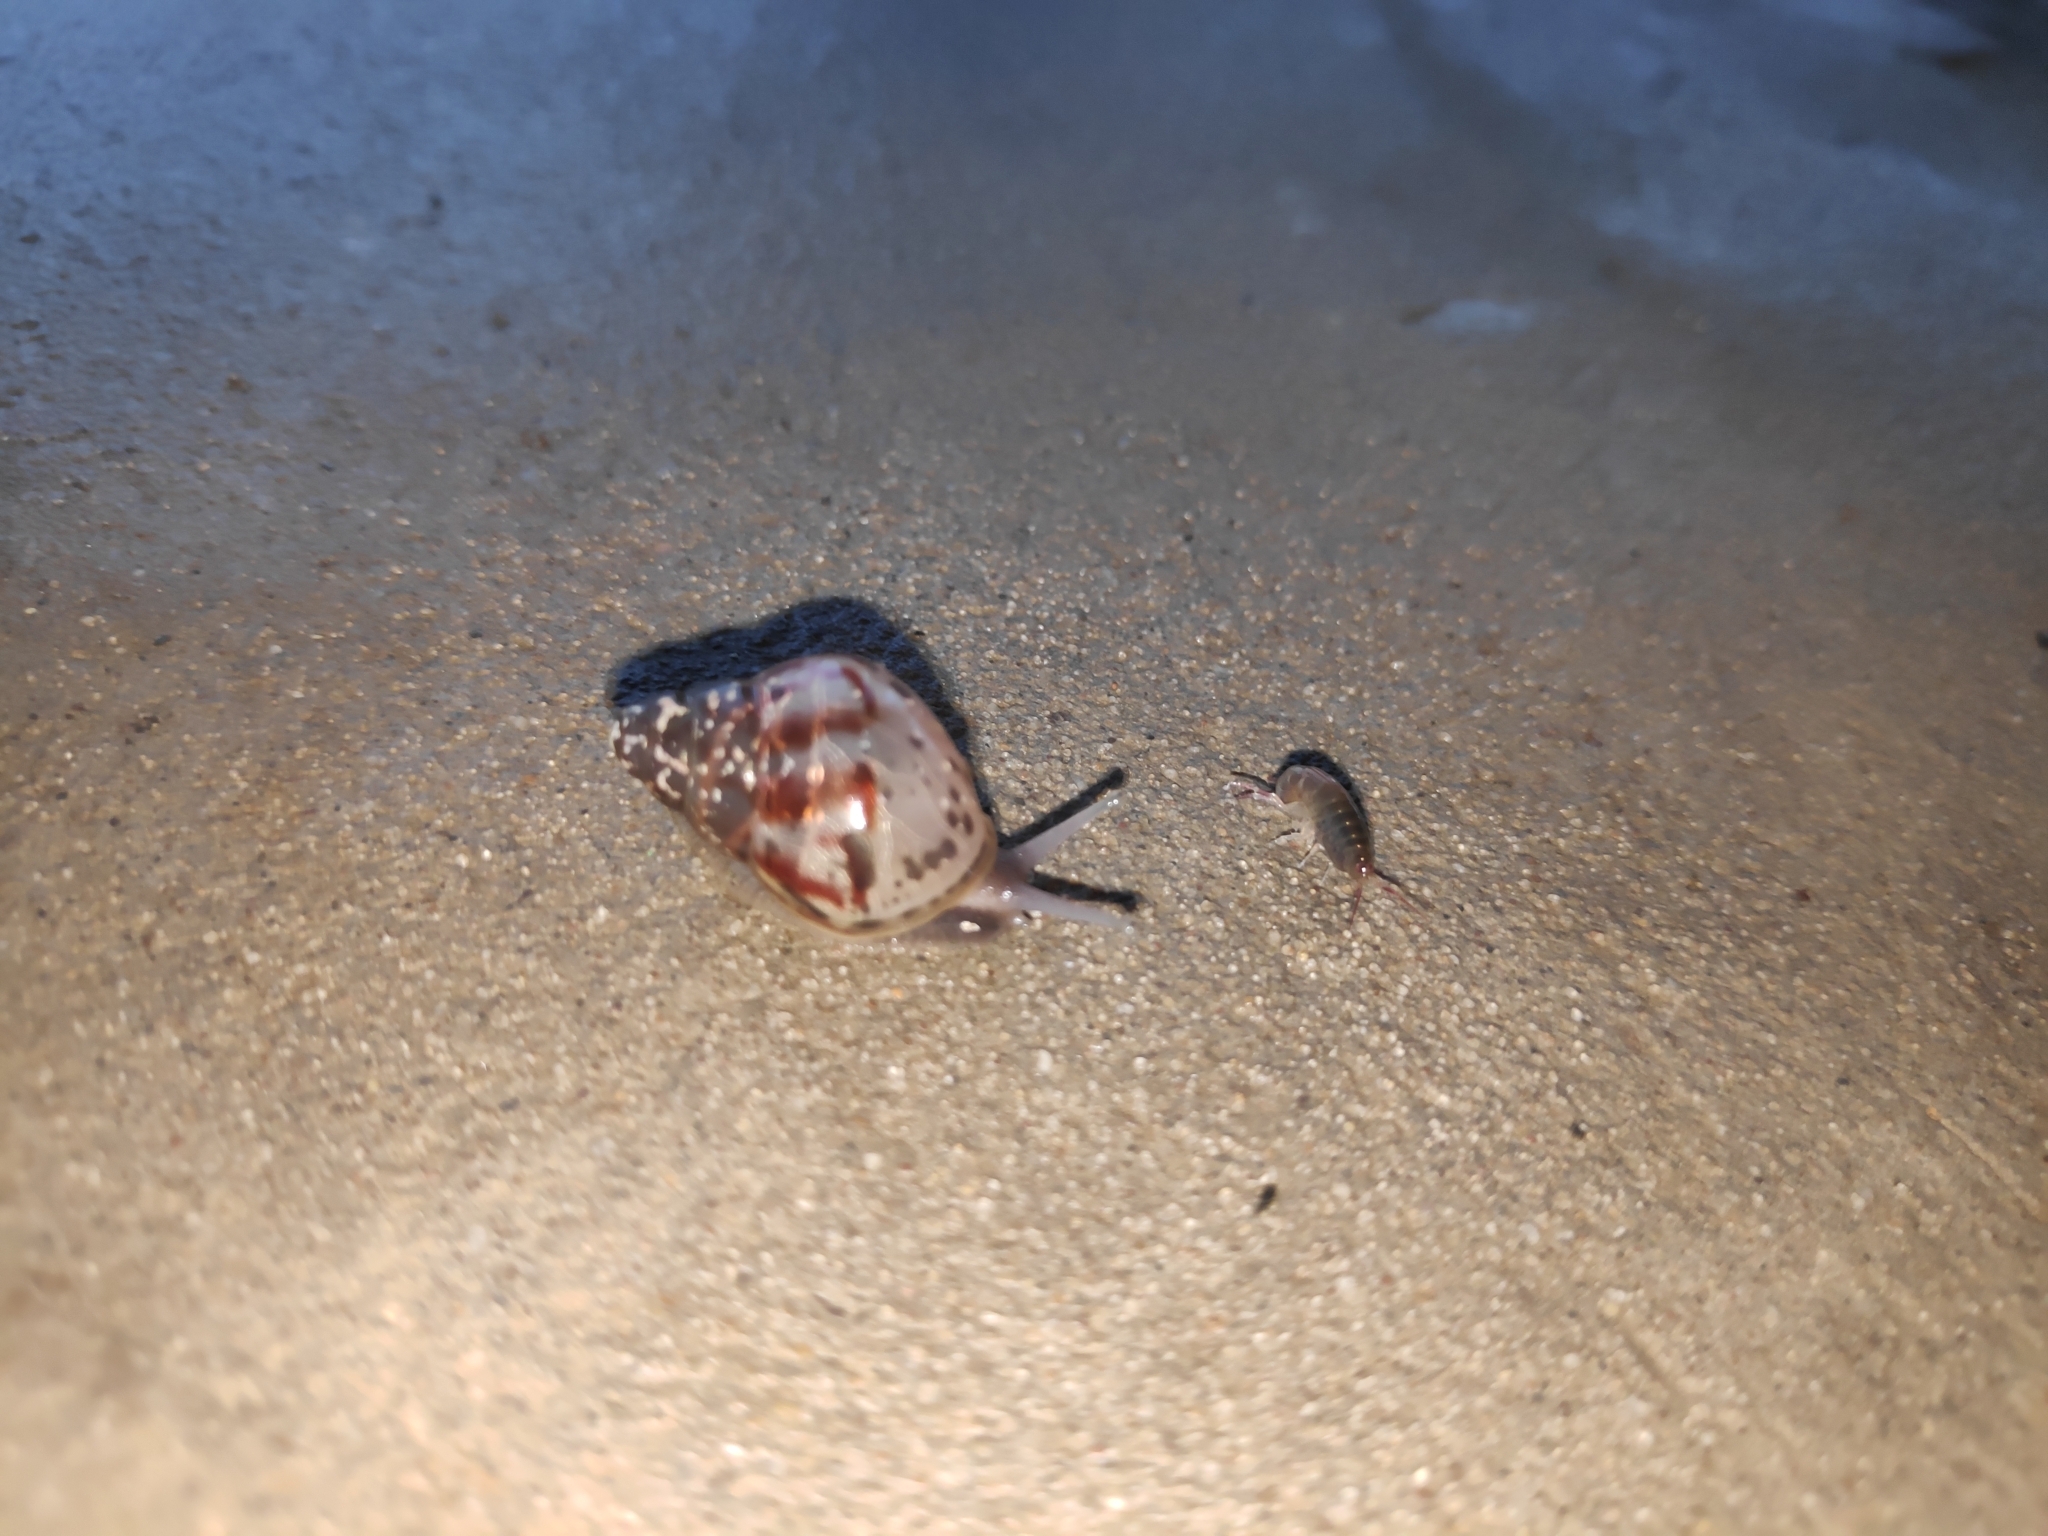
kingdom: Animalia
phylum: Mollusca
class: Gastropoda
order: Stylommatophora
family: Achatinidae
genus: Lissachatina
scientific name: Lissachatina fulica
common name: Giant african snail
